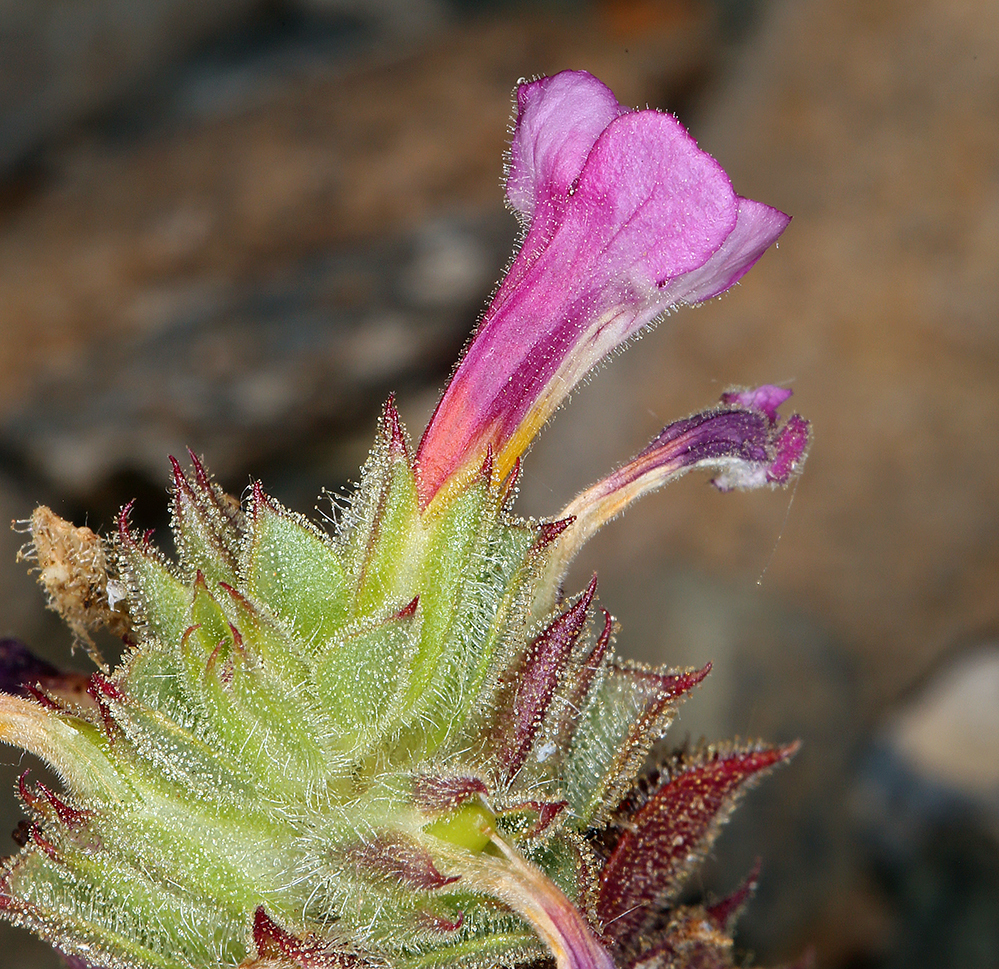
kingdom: Plantae
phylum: Tracheophyta
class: Magnoliopsida
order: Lamiales
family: Phrymaceae
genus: Diplacus
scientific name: Diplacus bigelovii
